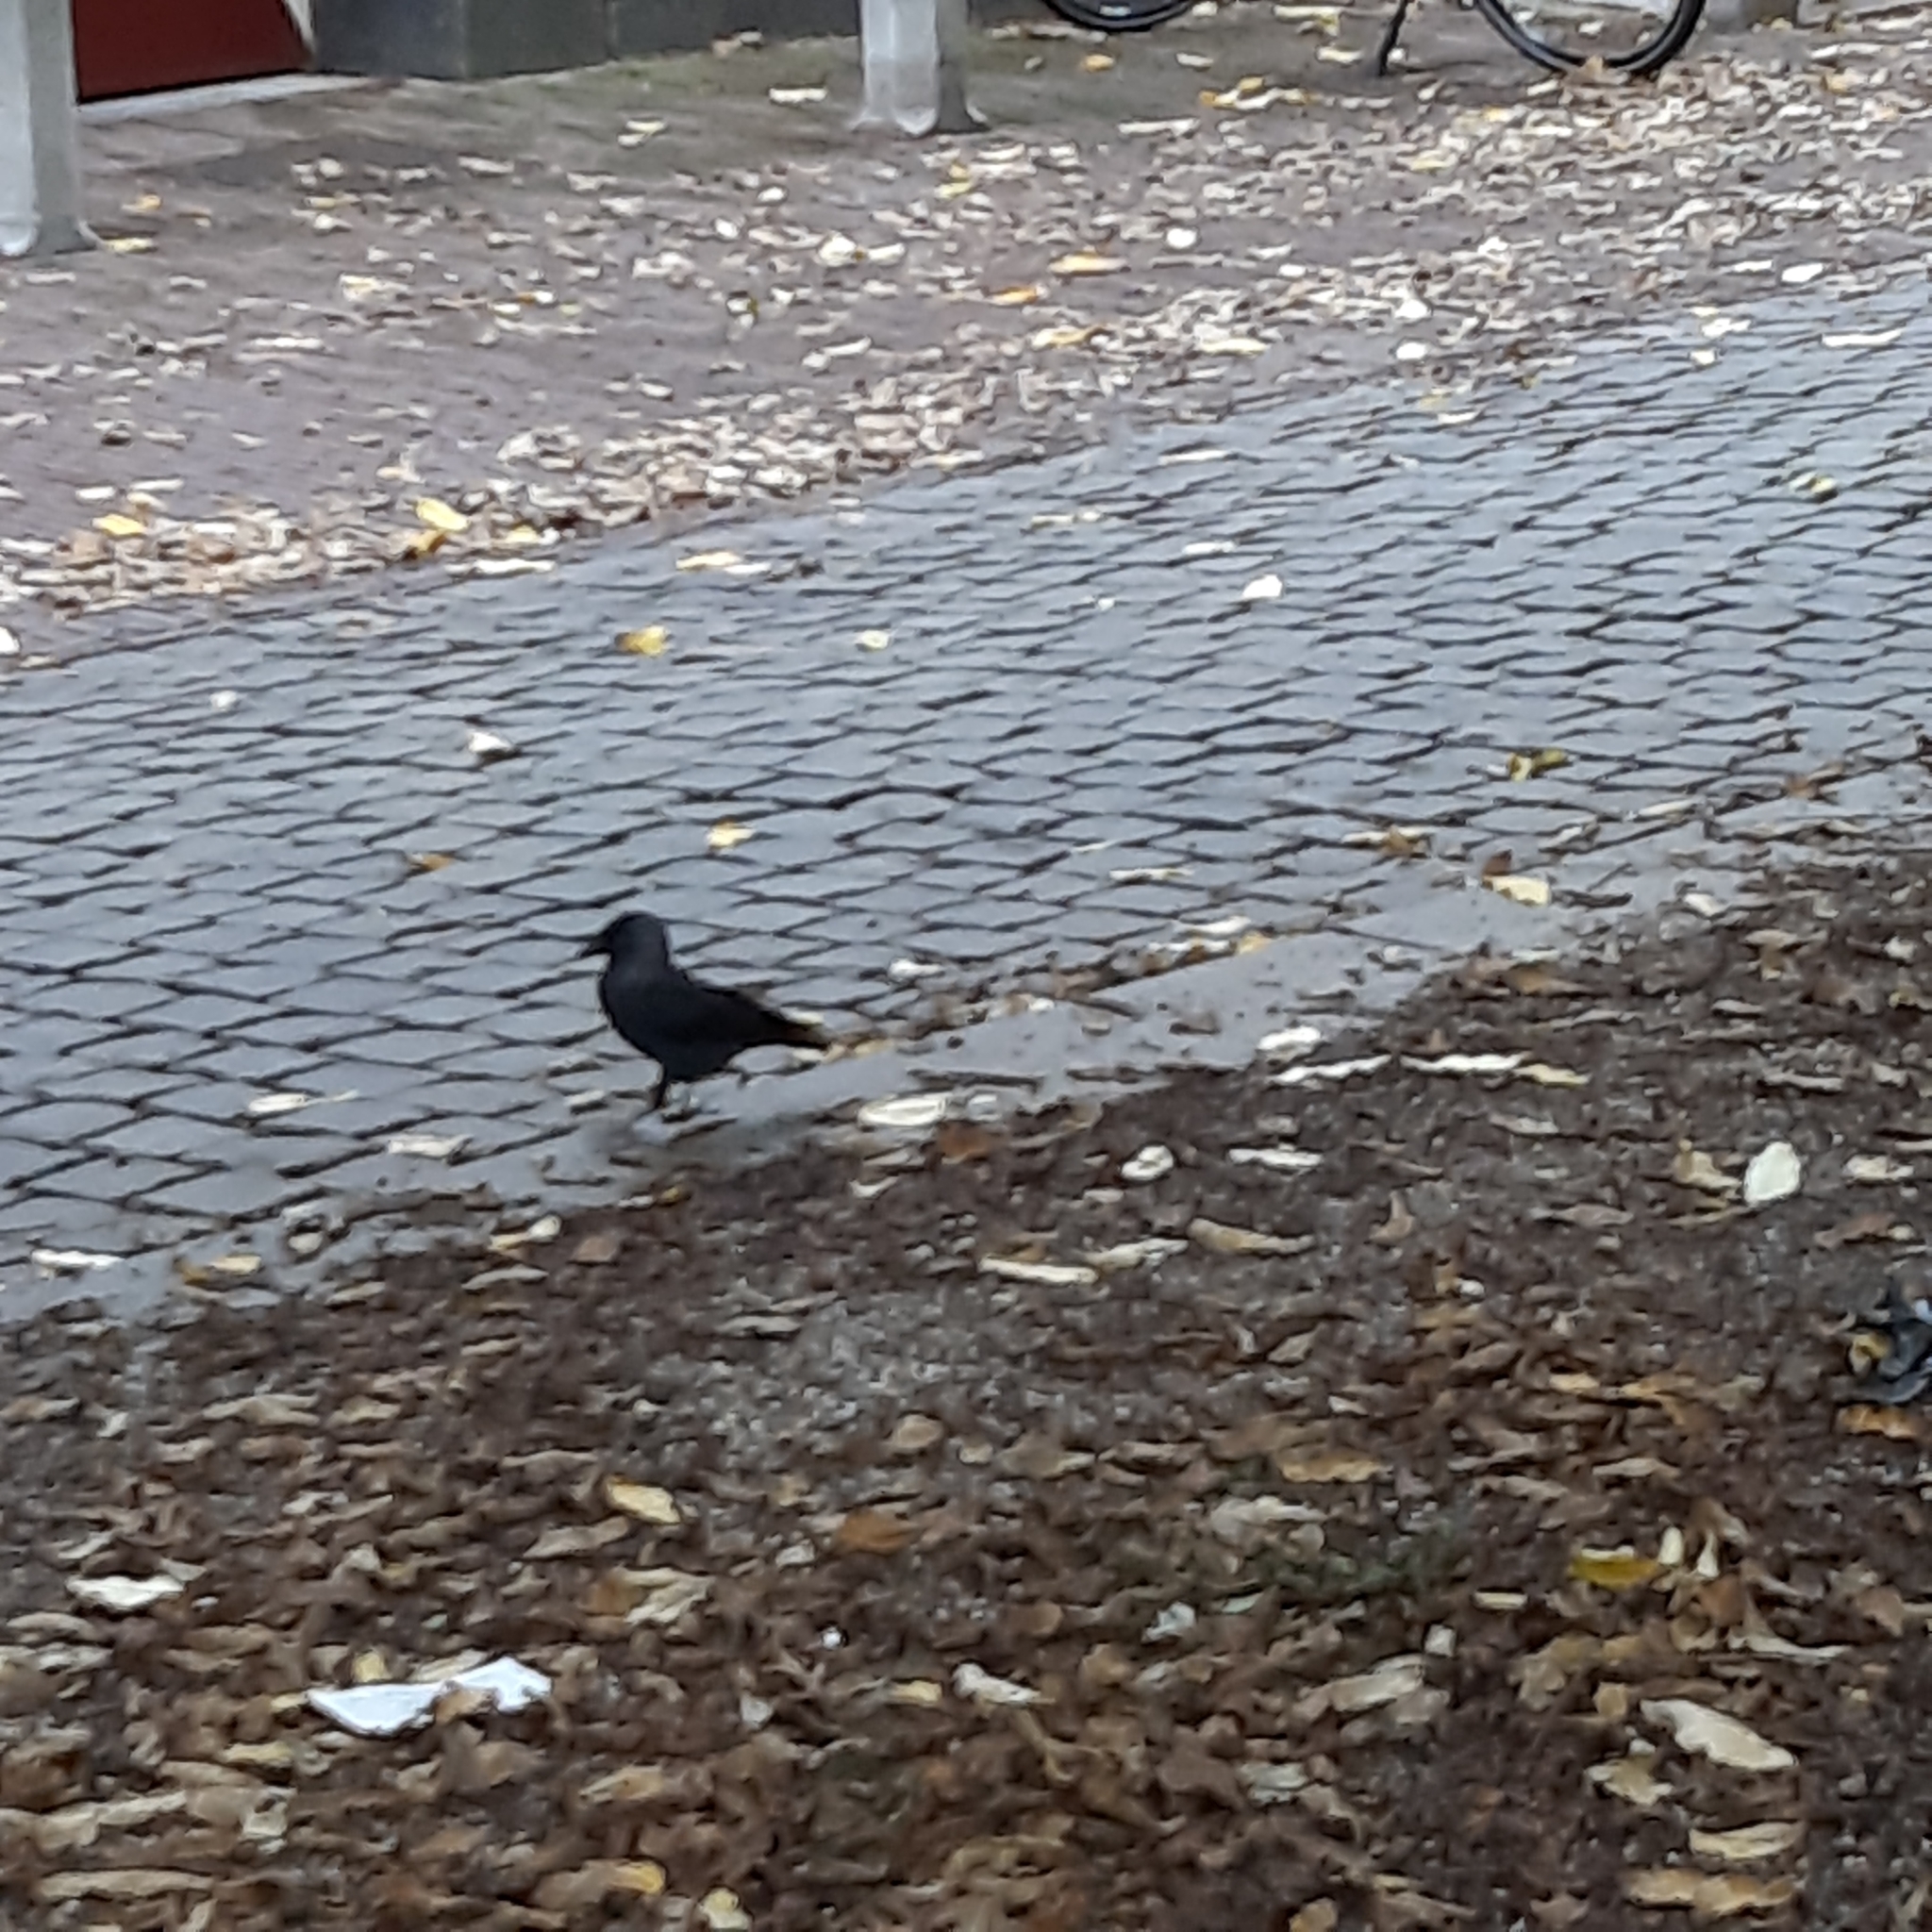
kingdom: Animalia
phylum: Chordata
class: Aves
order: Passeriformes
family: Corvidae
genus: Coloeus
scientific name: Coloeus monedula
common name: Western jackdaw
